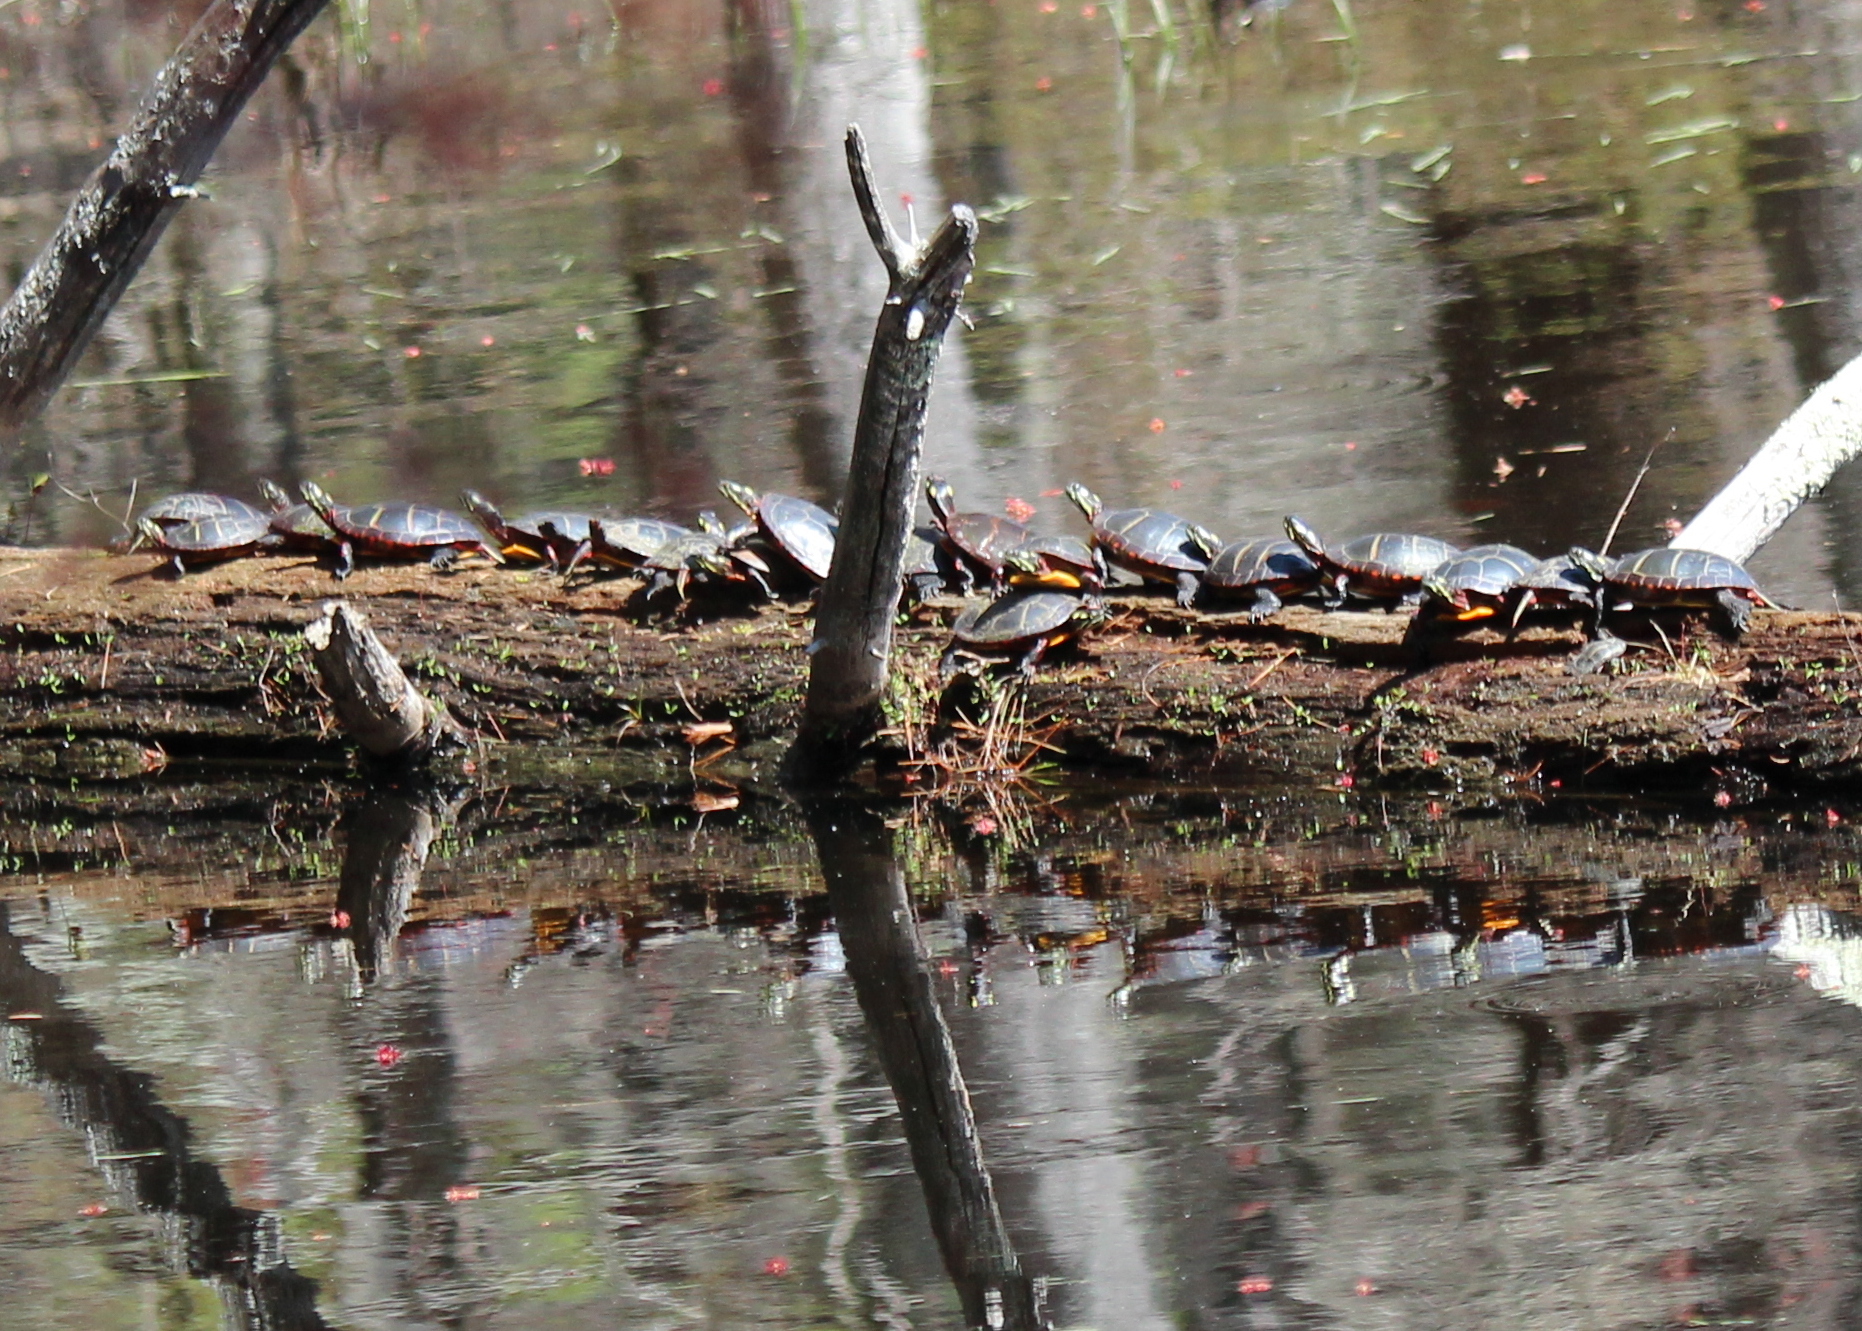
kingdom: Animalia
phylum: Chordata
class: Testudines
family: Emydidae
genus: Chrysemys
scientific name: Chrysemys picta
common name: Painted turtle
